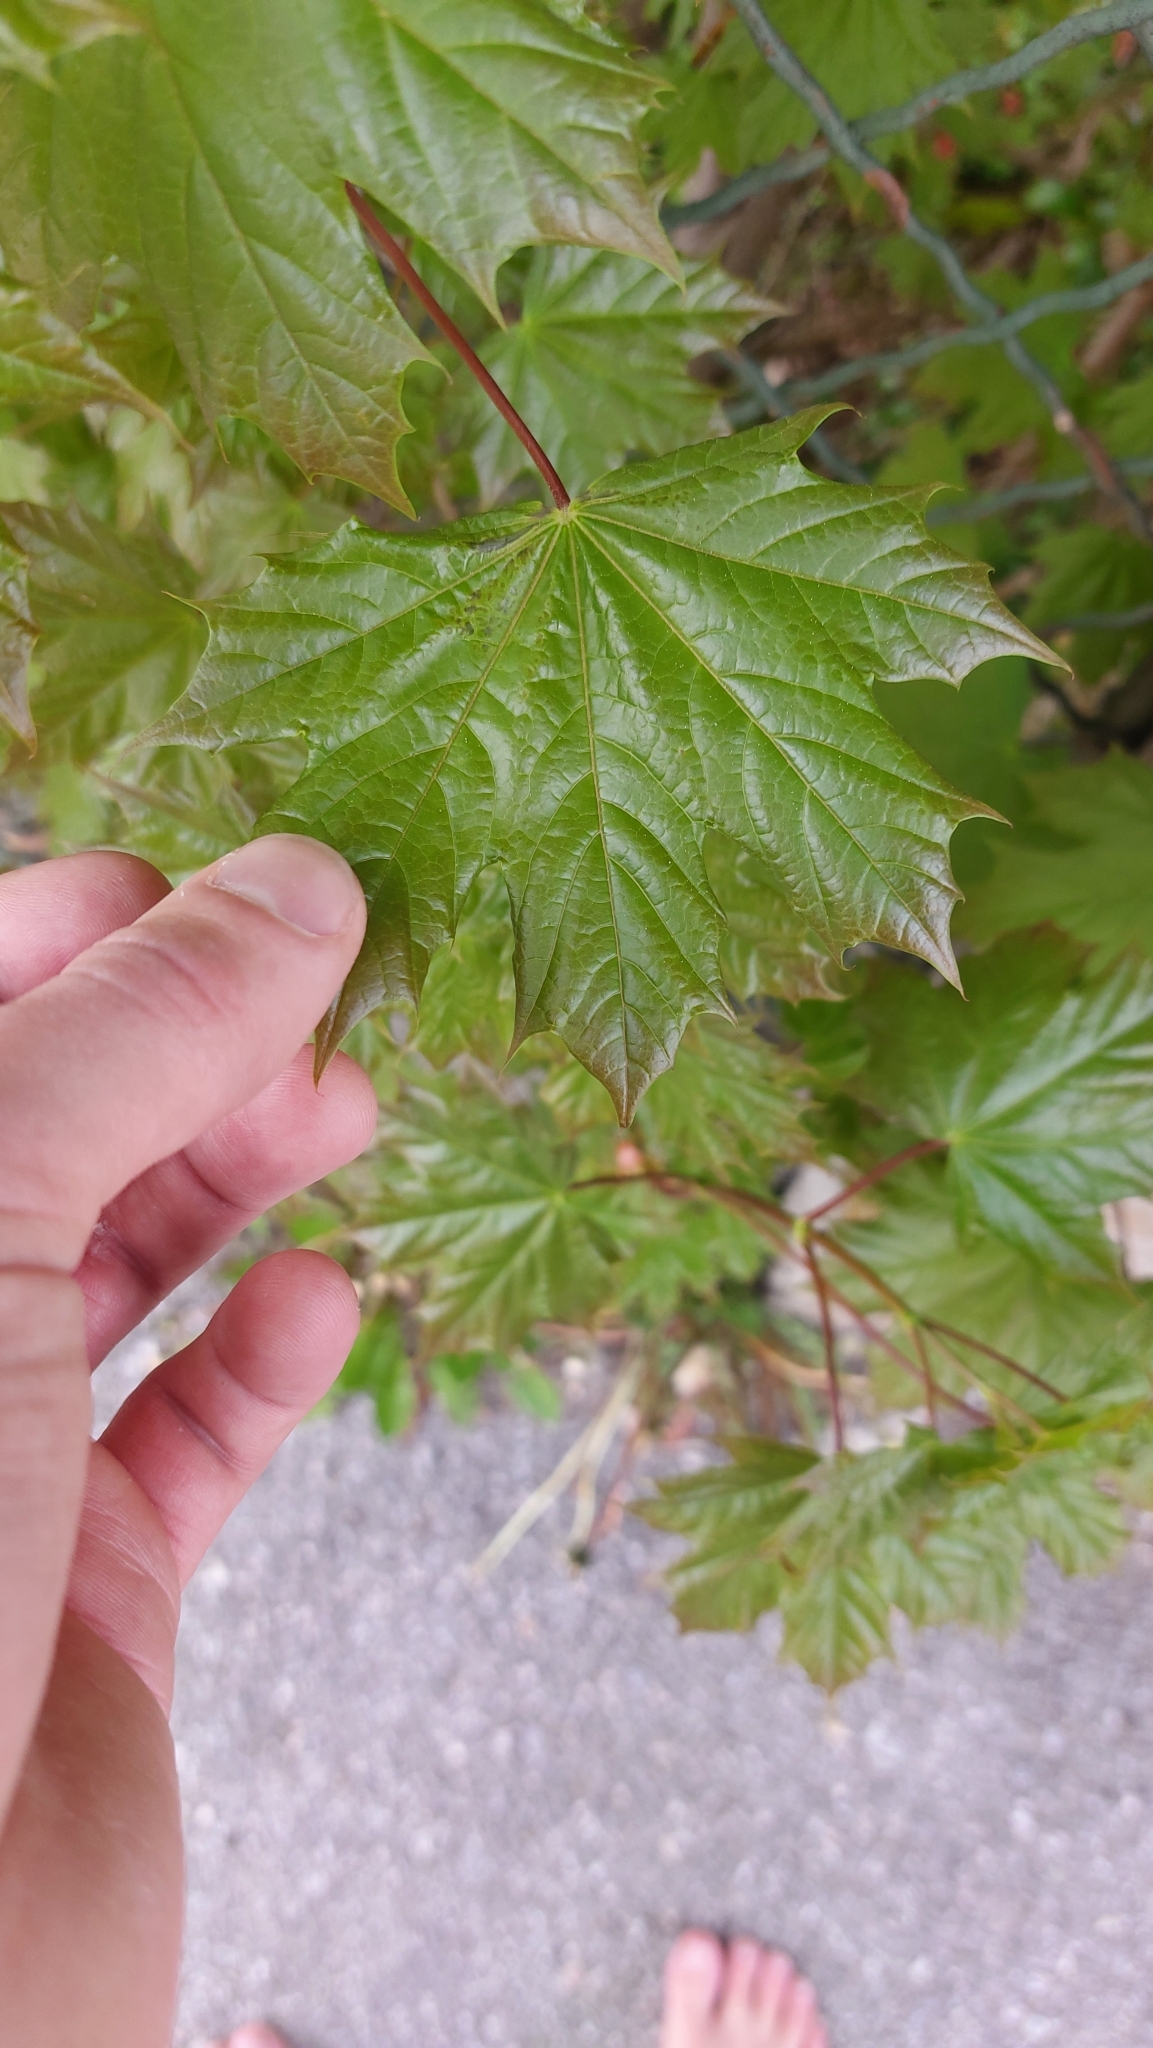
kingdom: Plantae
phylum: Tracheophyta
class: Magnoliopsida
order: Sapindales
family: Sapindaceae
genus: Acer
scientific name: Acer platanoides
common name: Norway maple
